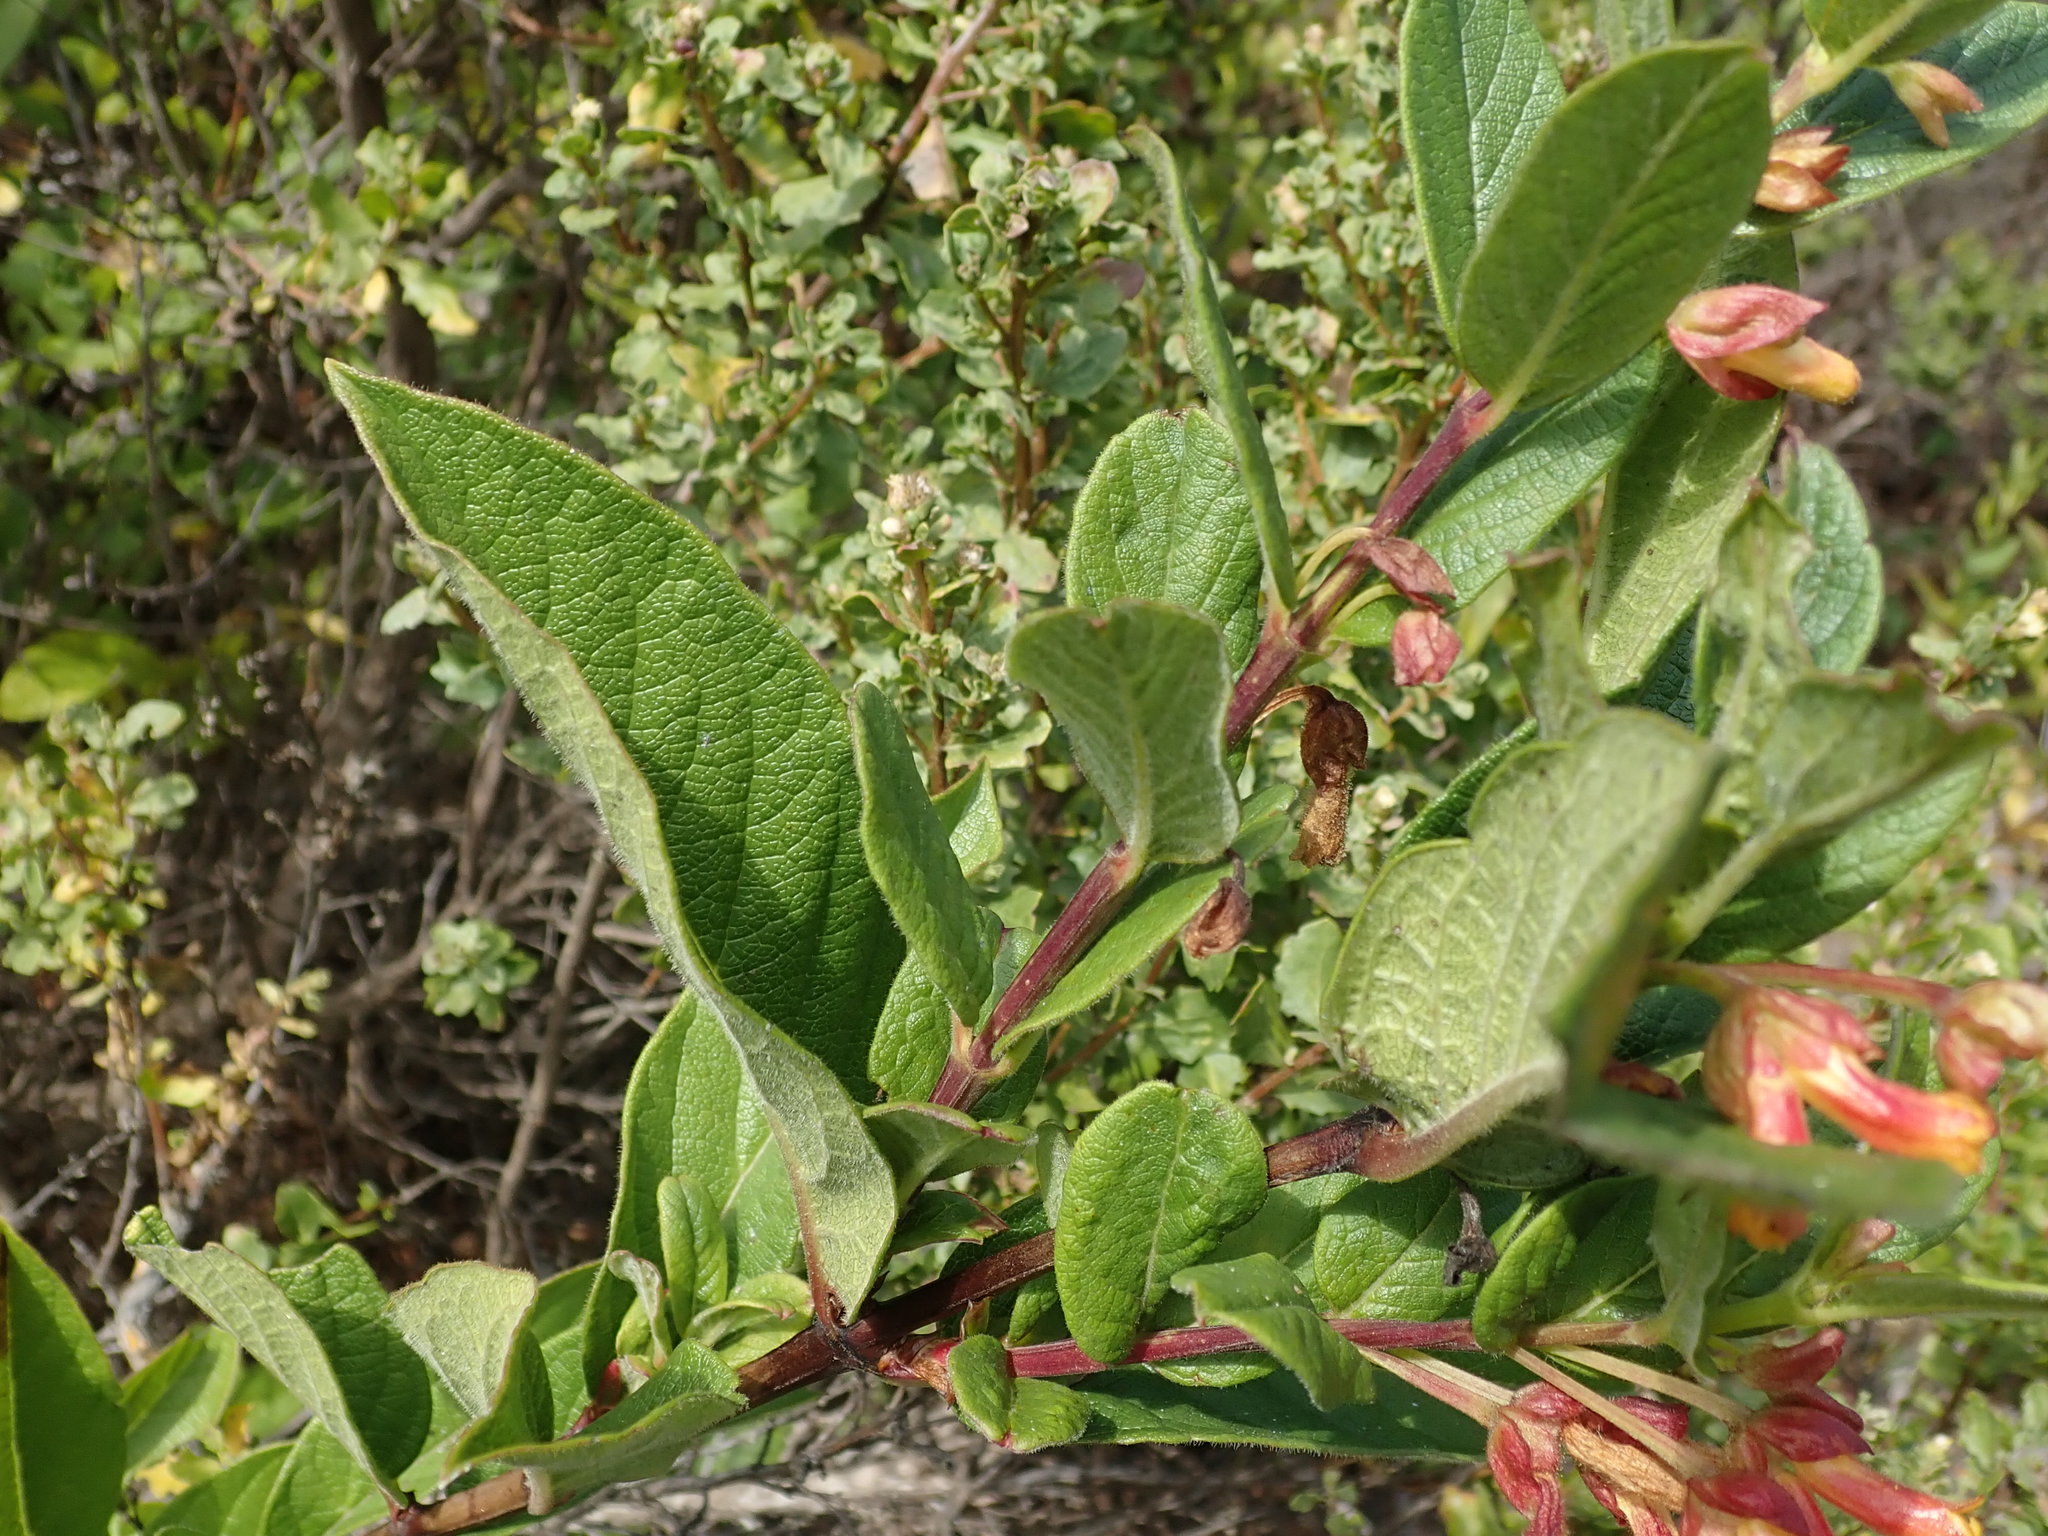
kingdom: Plantae
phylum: Tracheophyta
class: Magnoliopsida
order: Dipsacales
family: Caprifoliaceae
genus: Lonicera
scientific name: Lonicera involucrata
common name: Californian honeysuckle
